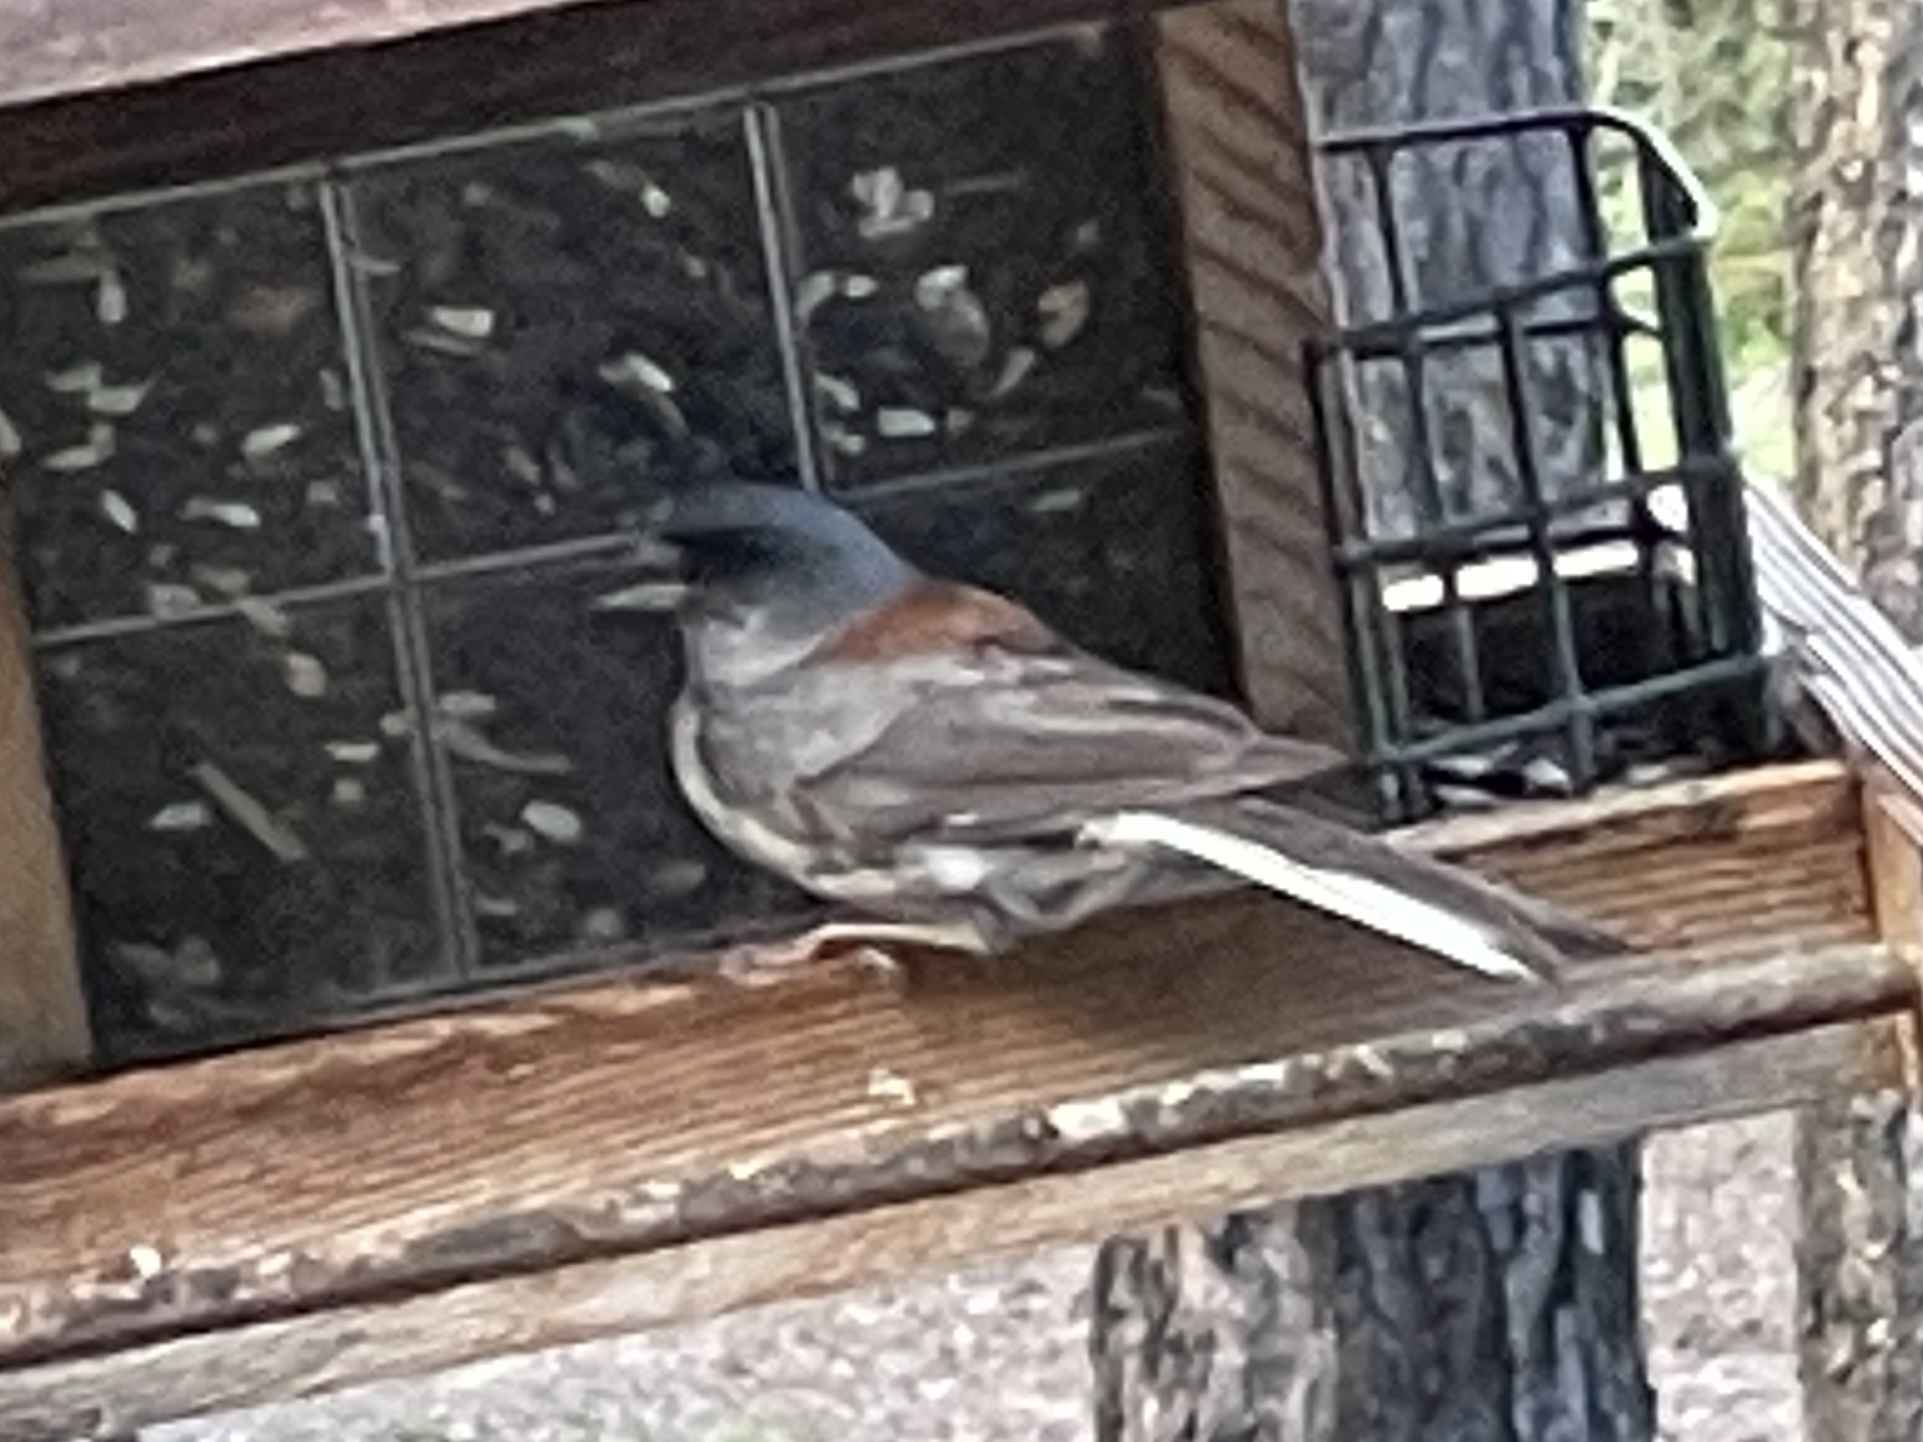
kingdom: Animalia
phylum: Chordata
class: Aves
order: Passeriformes
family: Passerellidae
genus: Junco
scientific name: Junco hyemalis
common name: Dark-eyed junco
